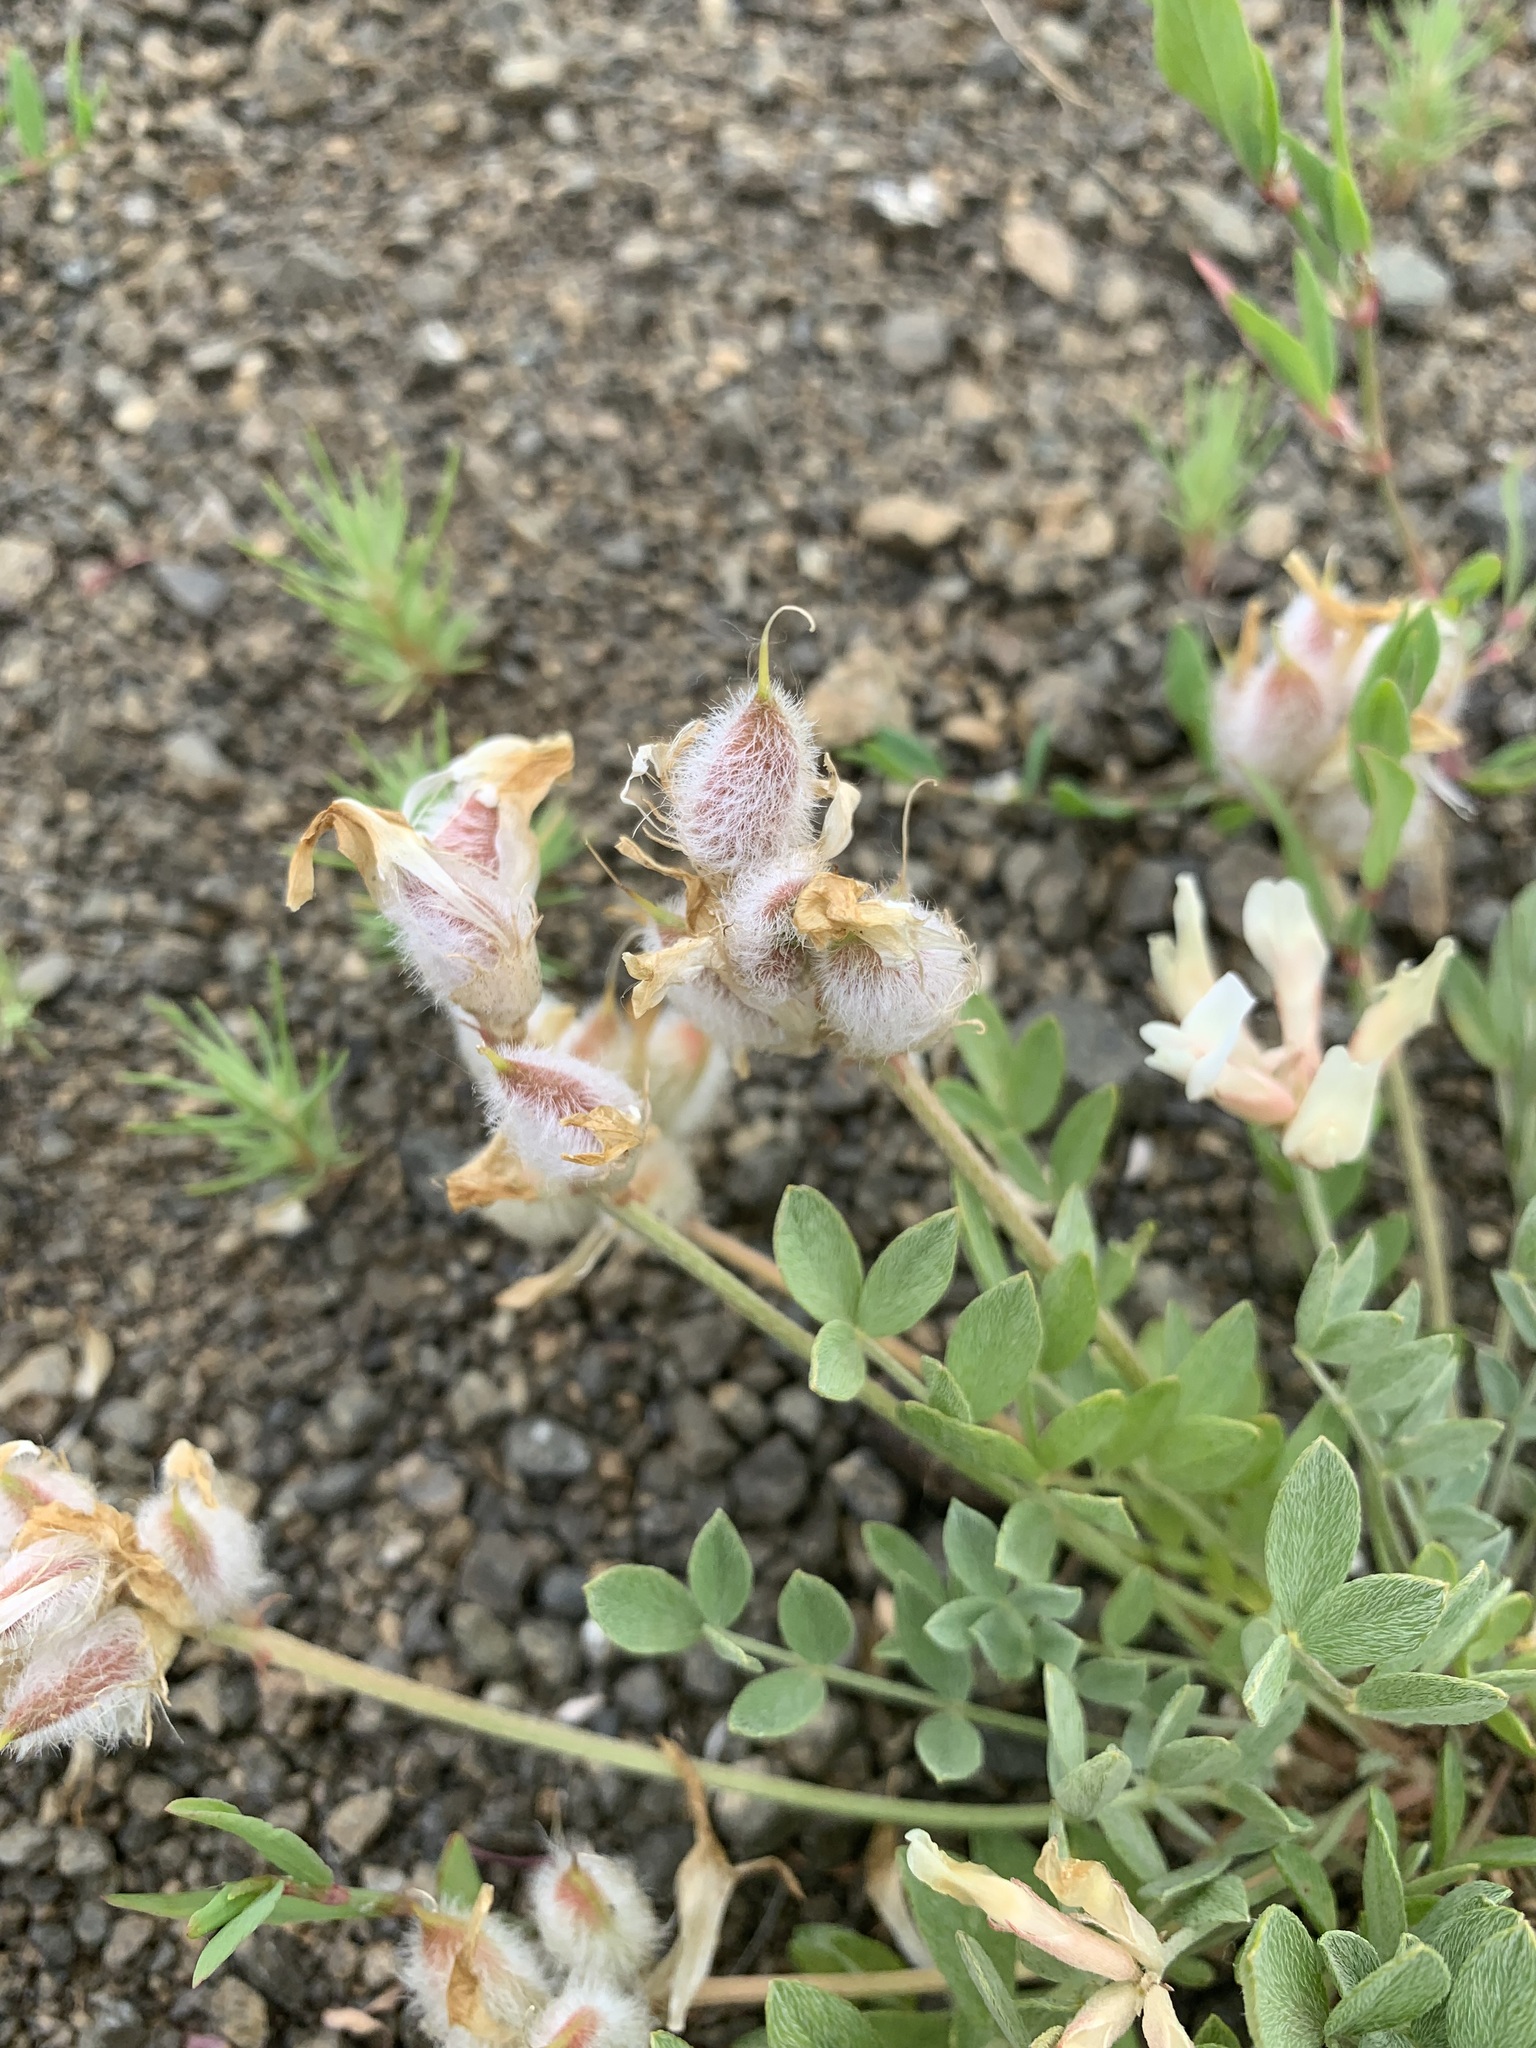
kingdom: Plantae
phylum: Tracheophyta
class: Magnoliopsida
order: Fabales
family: Fabaceae
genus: Astragalus
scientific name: Astragalus tergeminus
